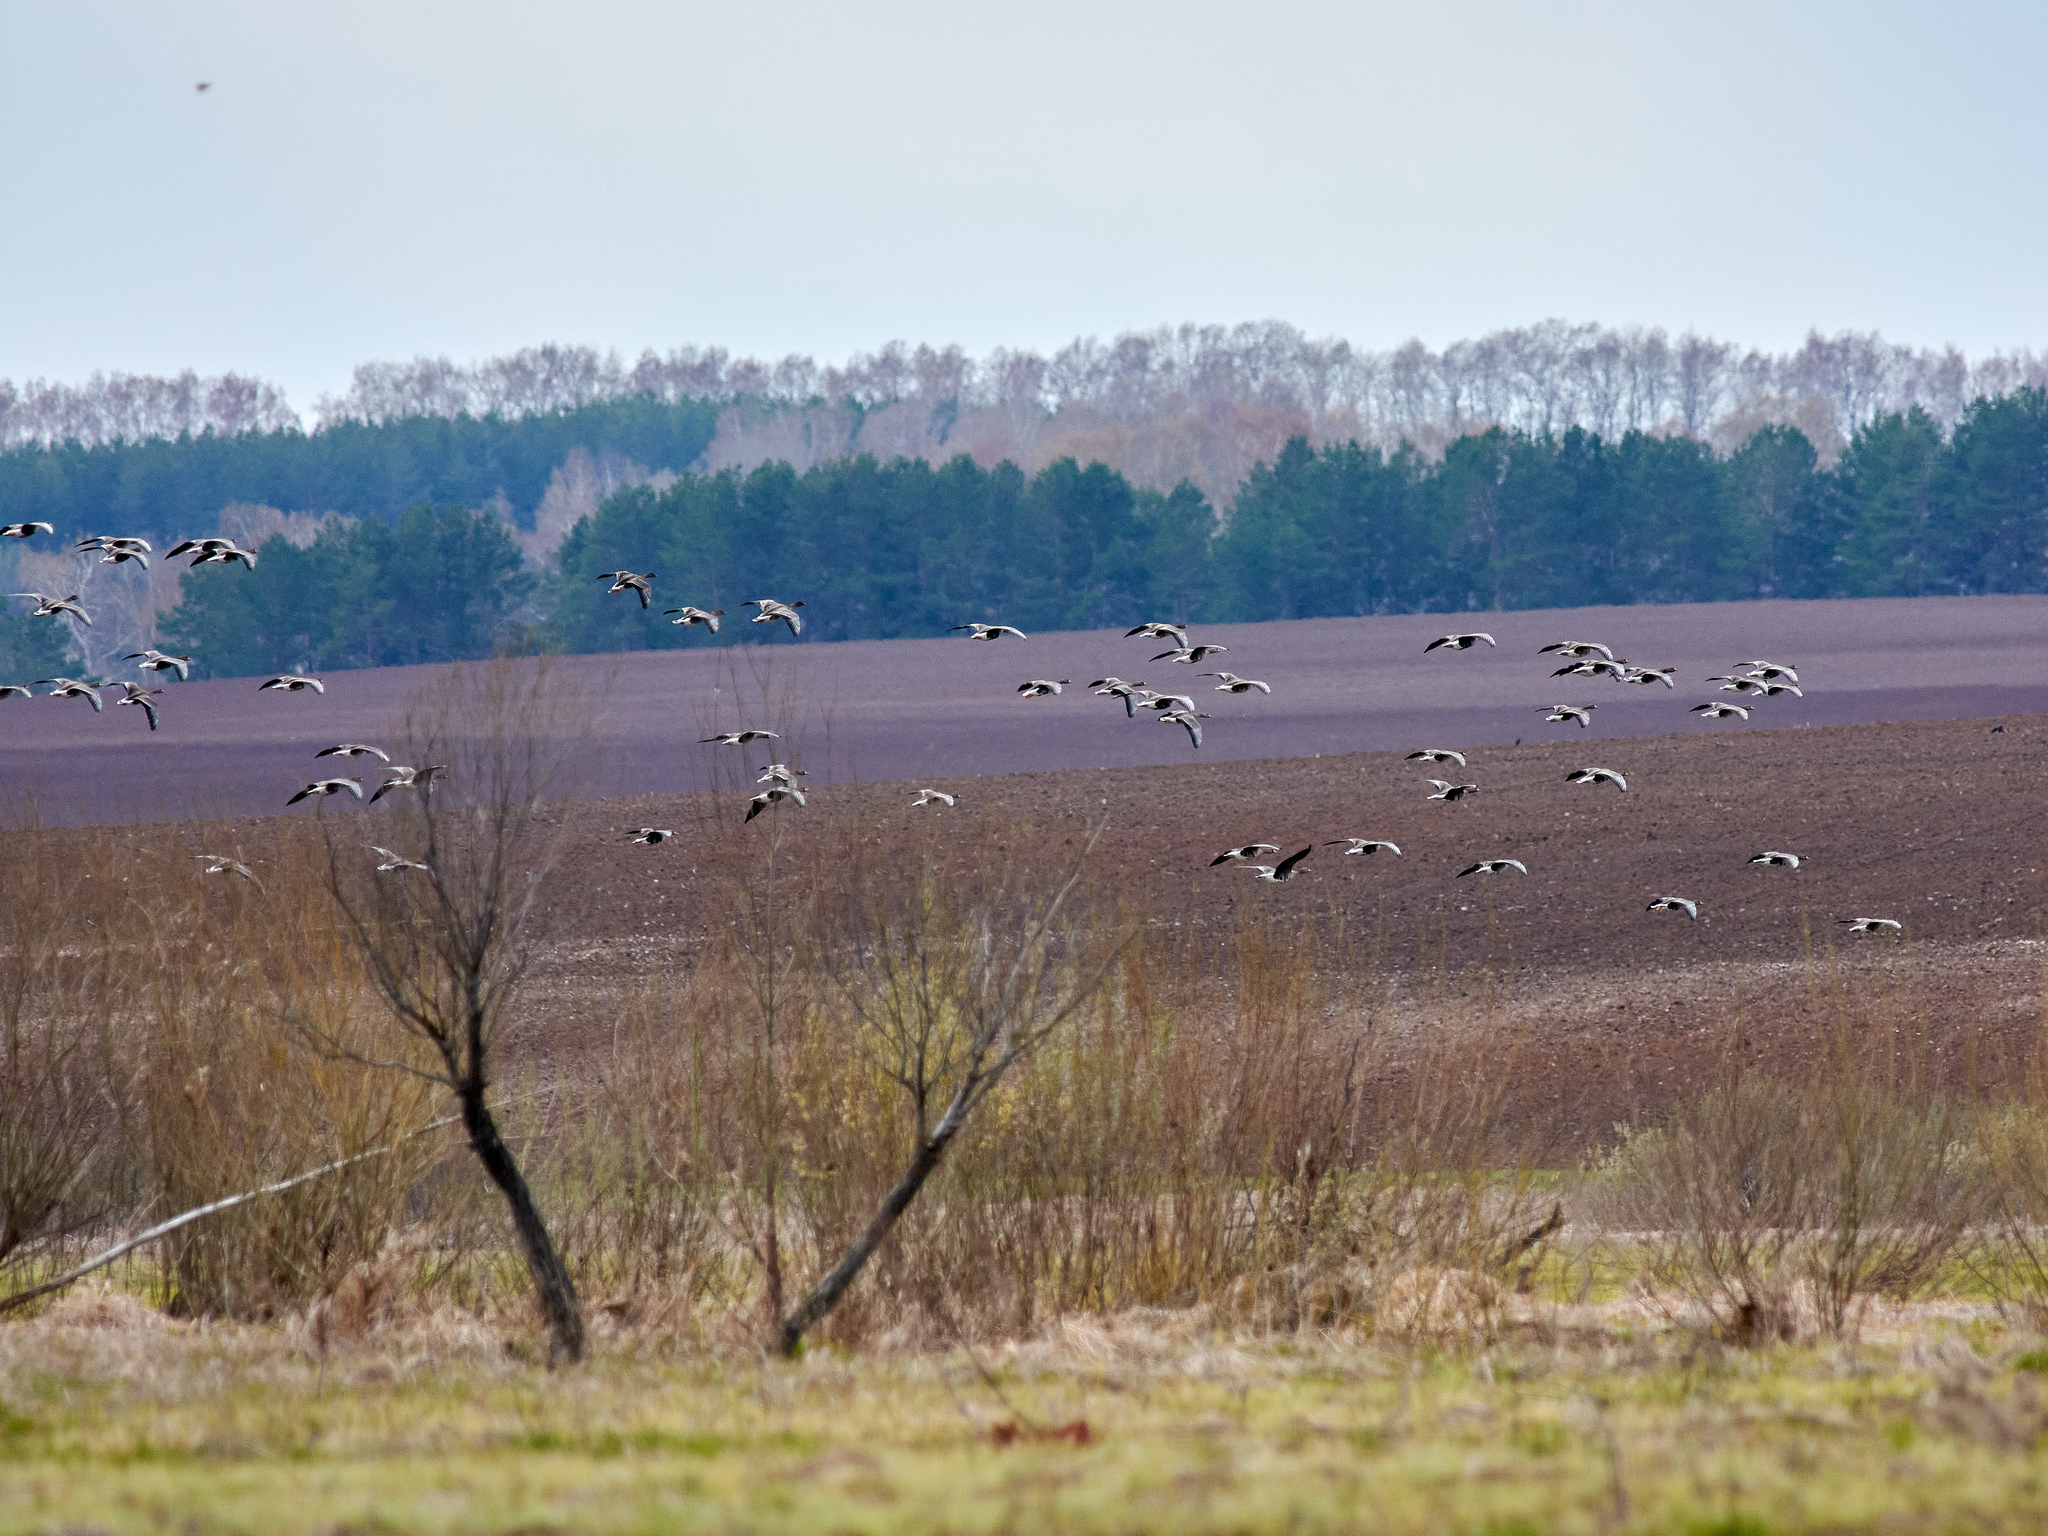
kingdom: Animalia
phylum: Chordata
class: Aves
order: Anseriformes
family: Anatidae
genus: Anser
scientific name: Anser albifrons
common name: Greater white-fronted goose
